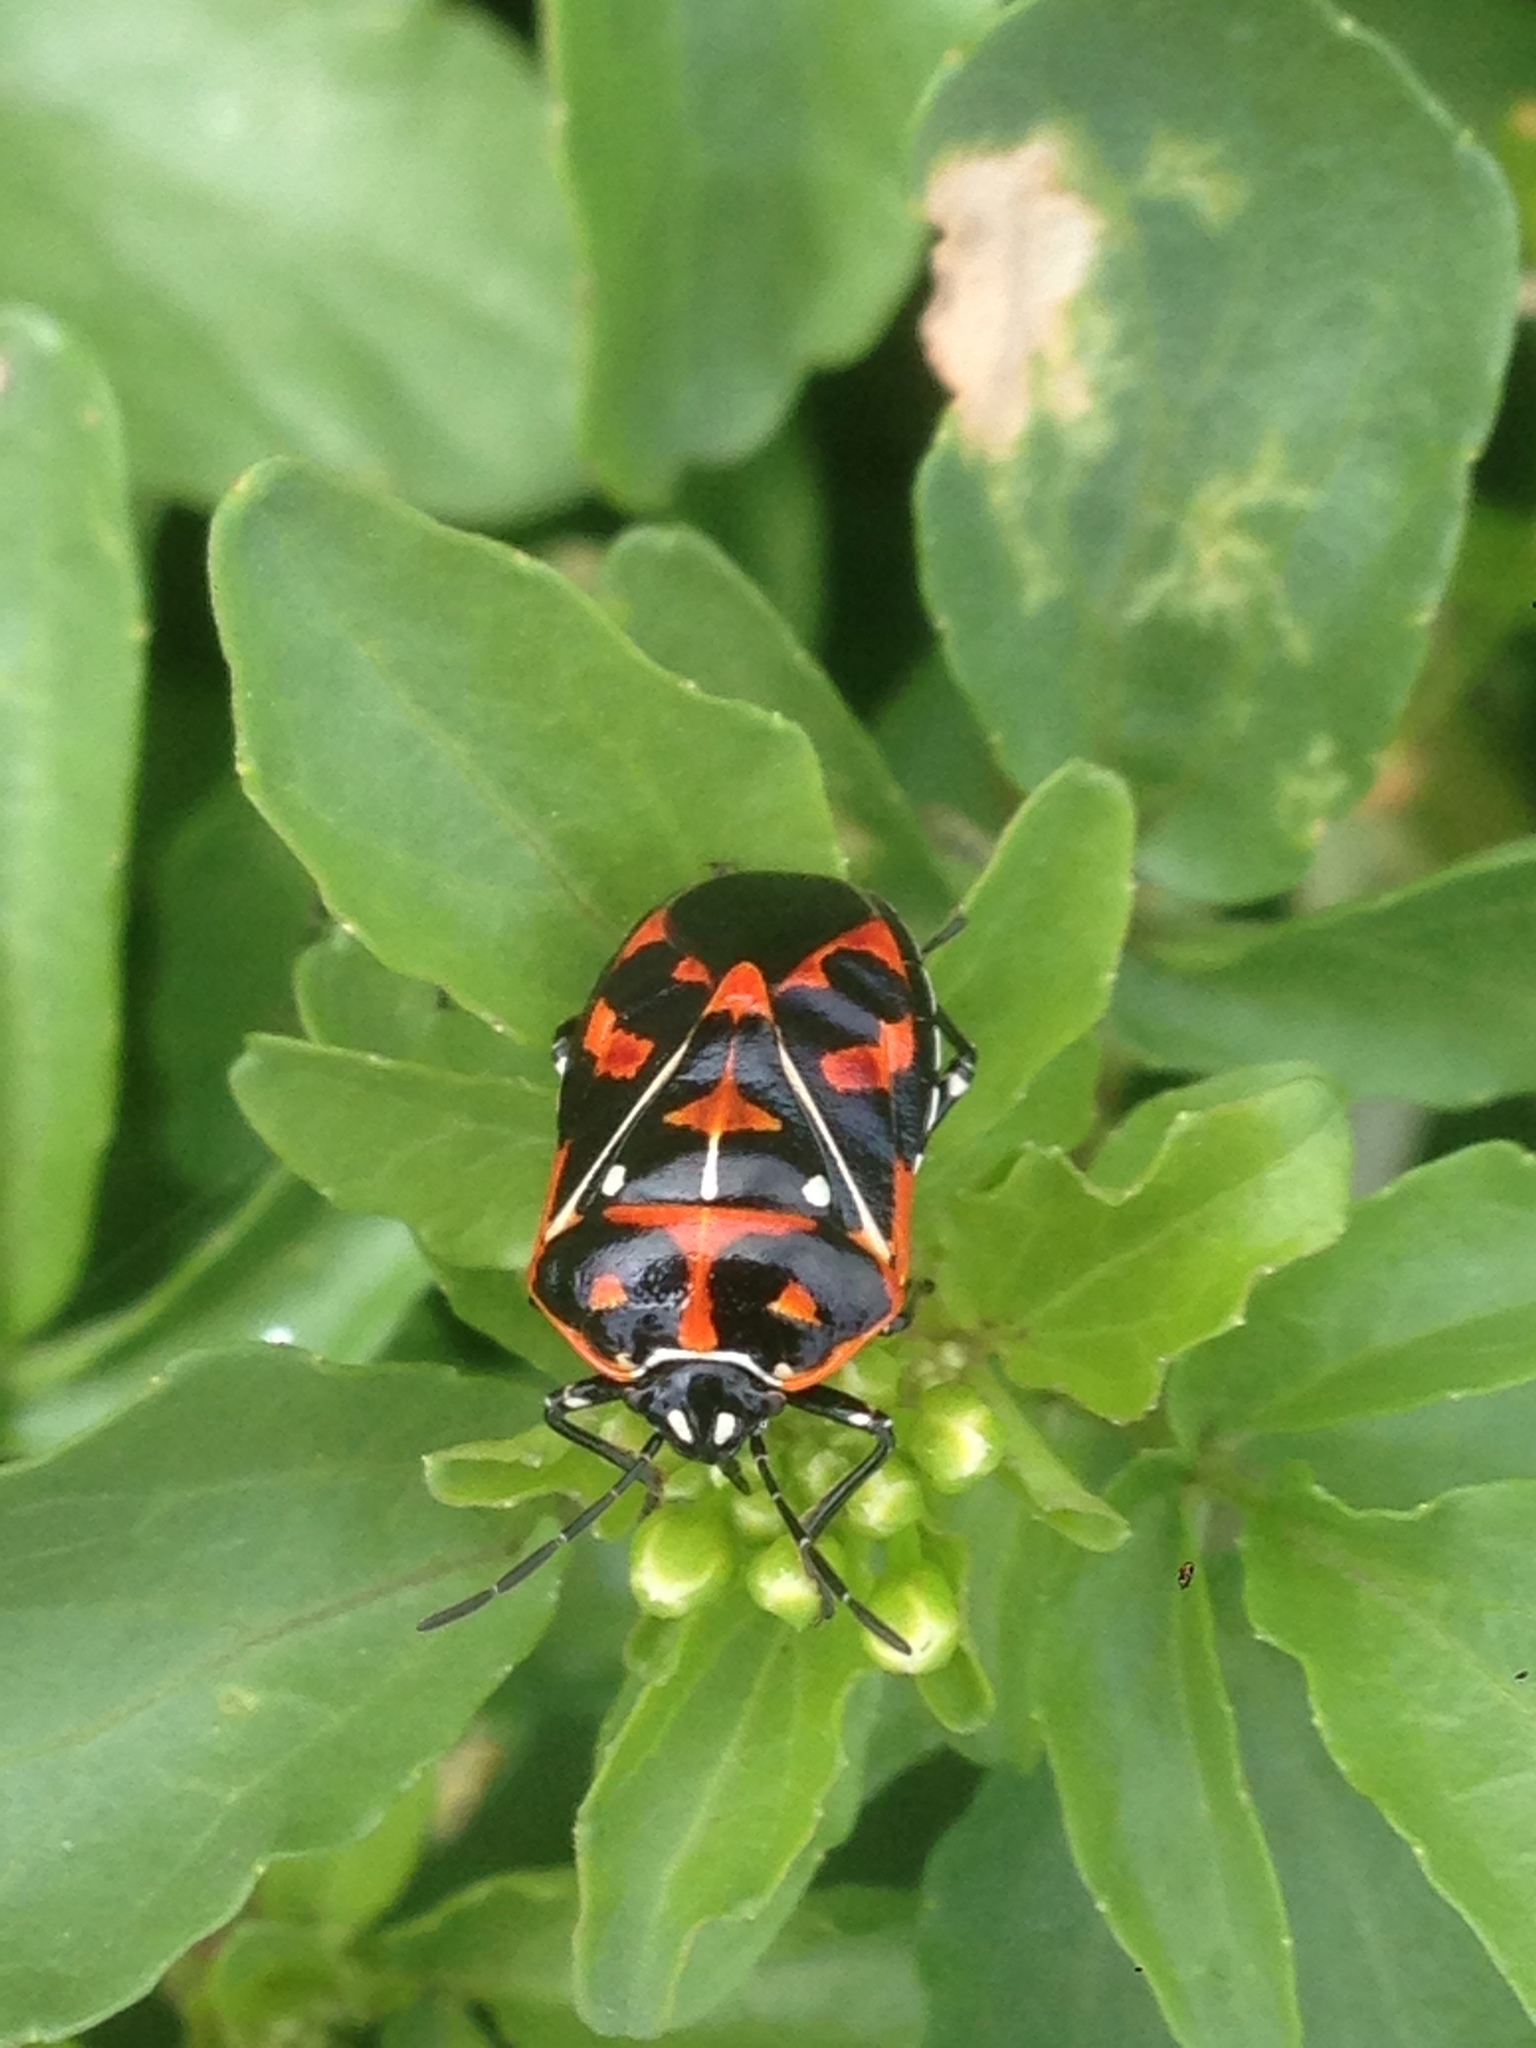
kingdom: Animalia
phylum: Arthropoda
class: Insecta
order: Hemiptera
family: Pentatomidae
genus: Murgantia
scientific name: Murgantia histrionica
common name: Harlequin bug
